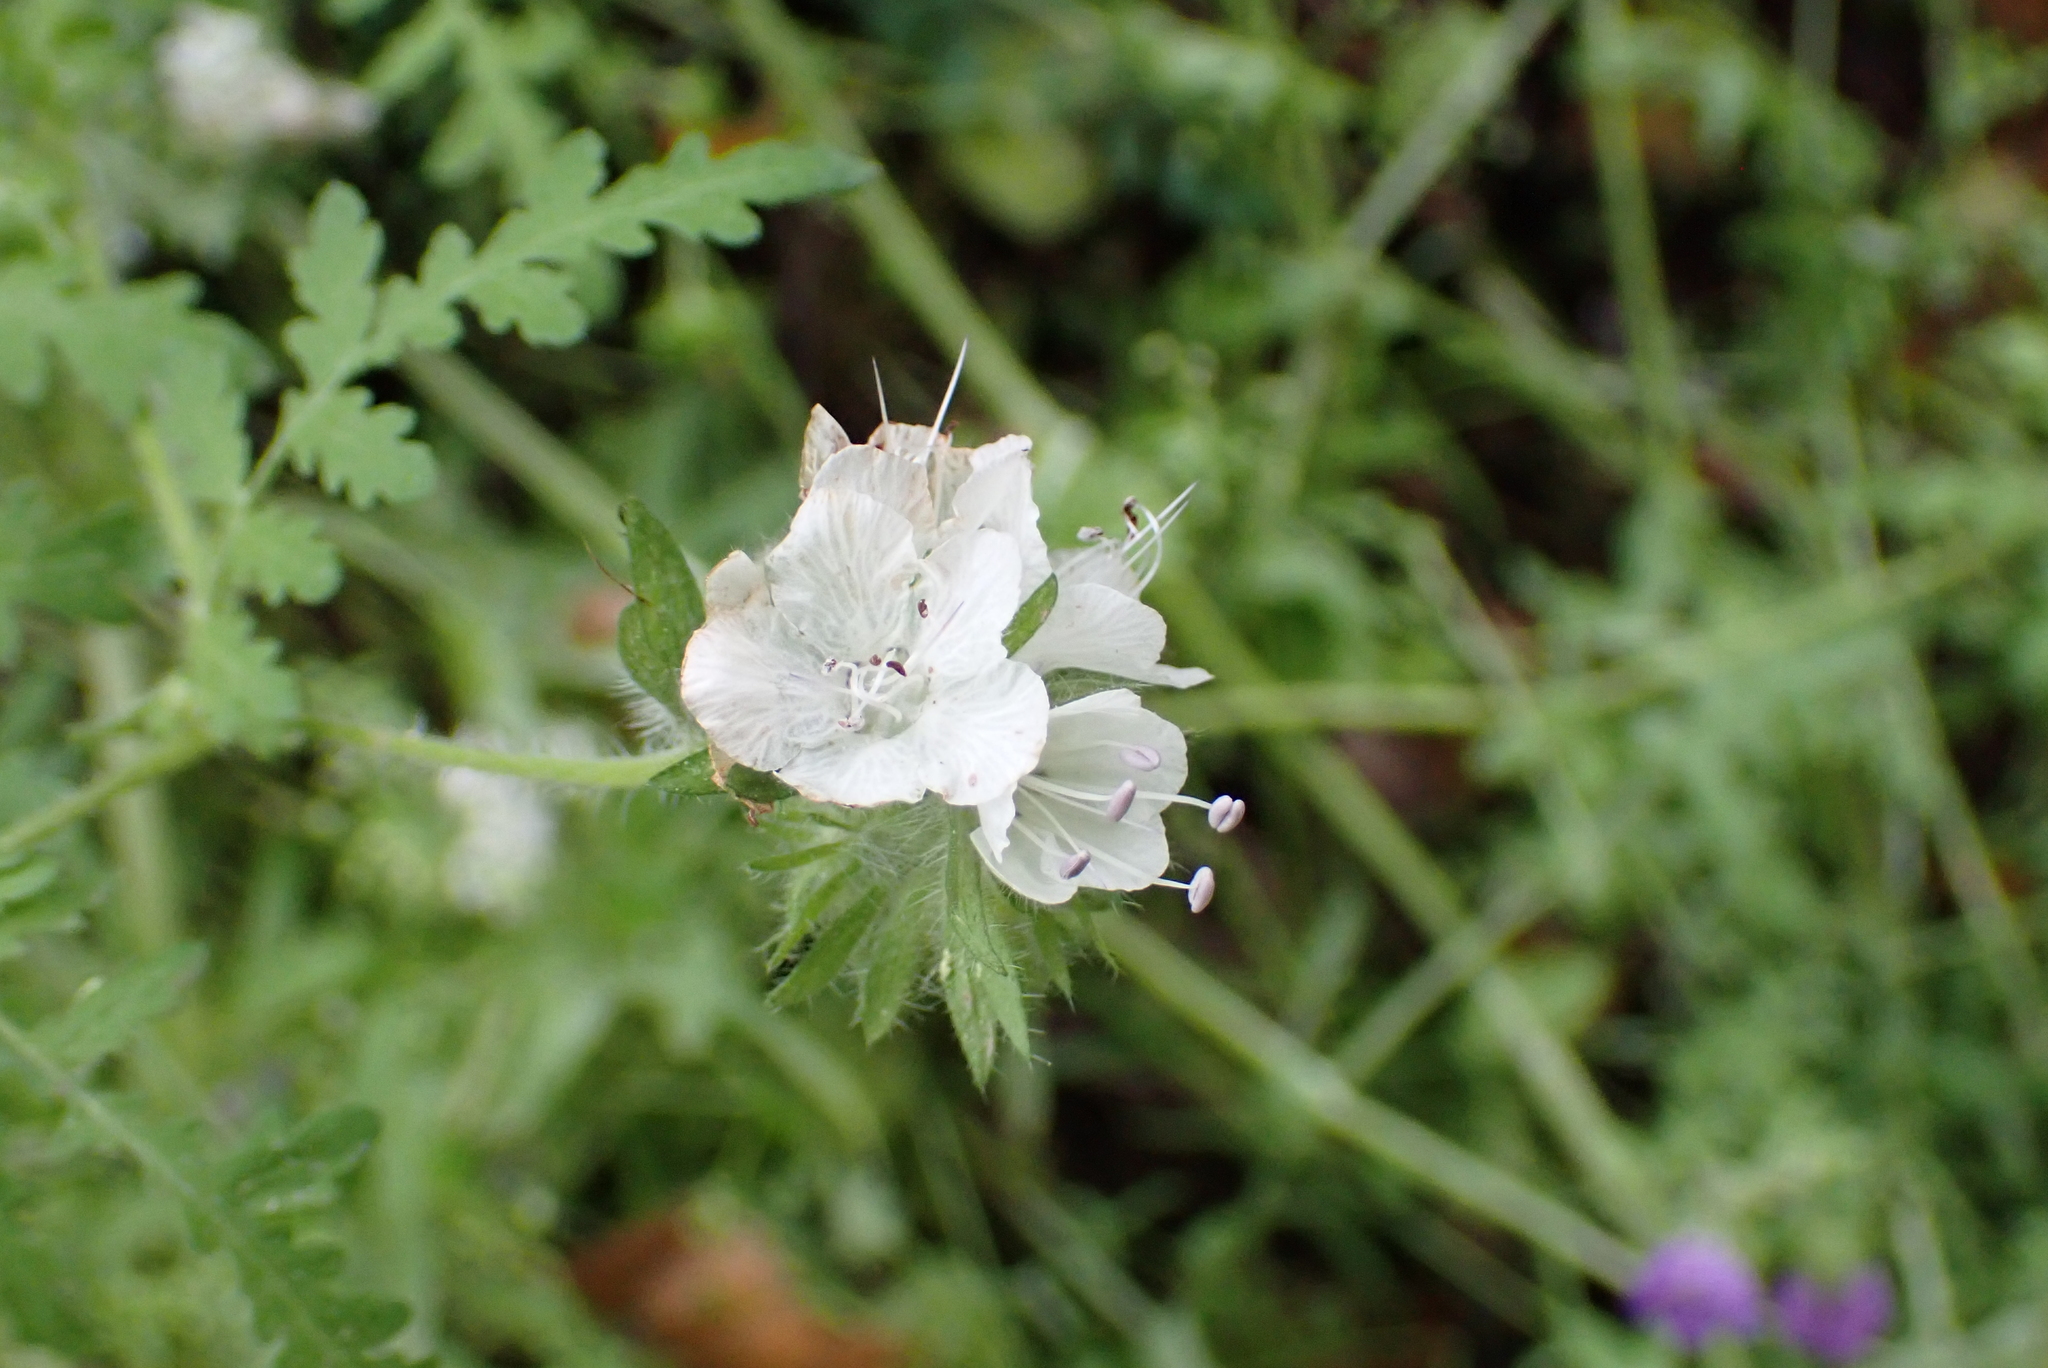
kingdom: Plantae
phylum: Tracheophyta
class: Magnoliopsida
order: Boraginales
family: Hydrophyllaceae
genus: Phacelia
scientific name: Phacelia distans
